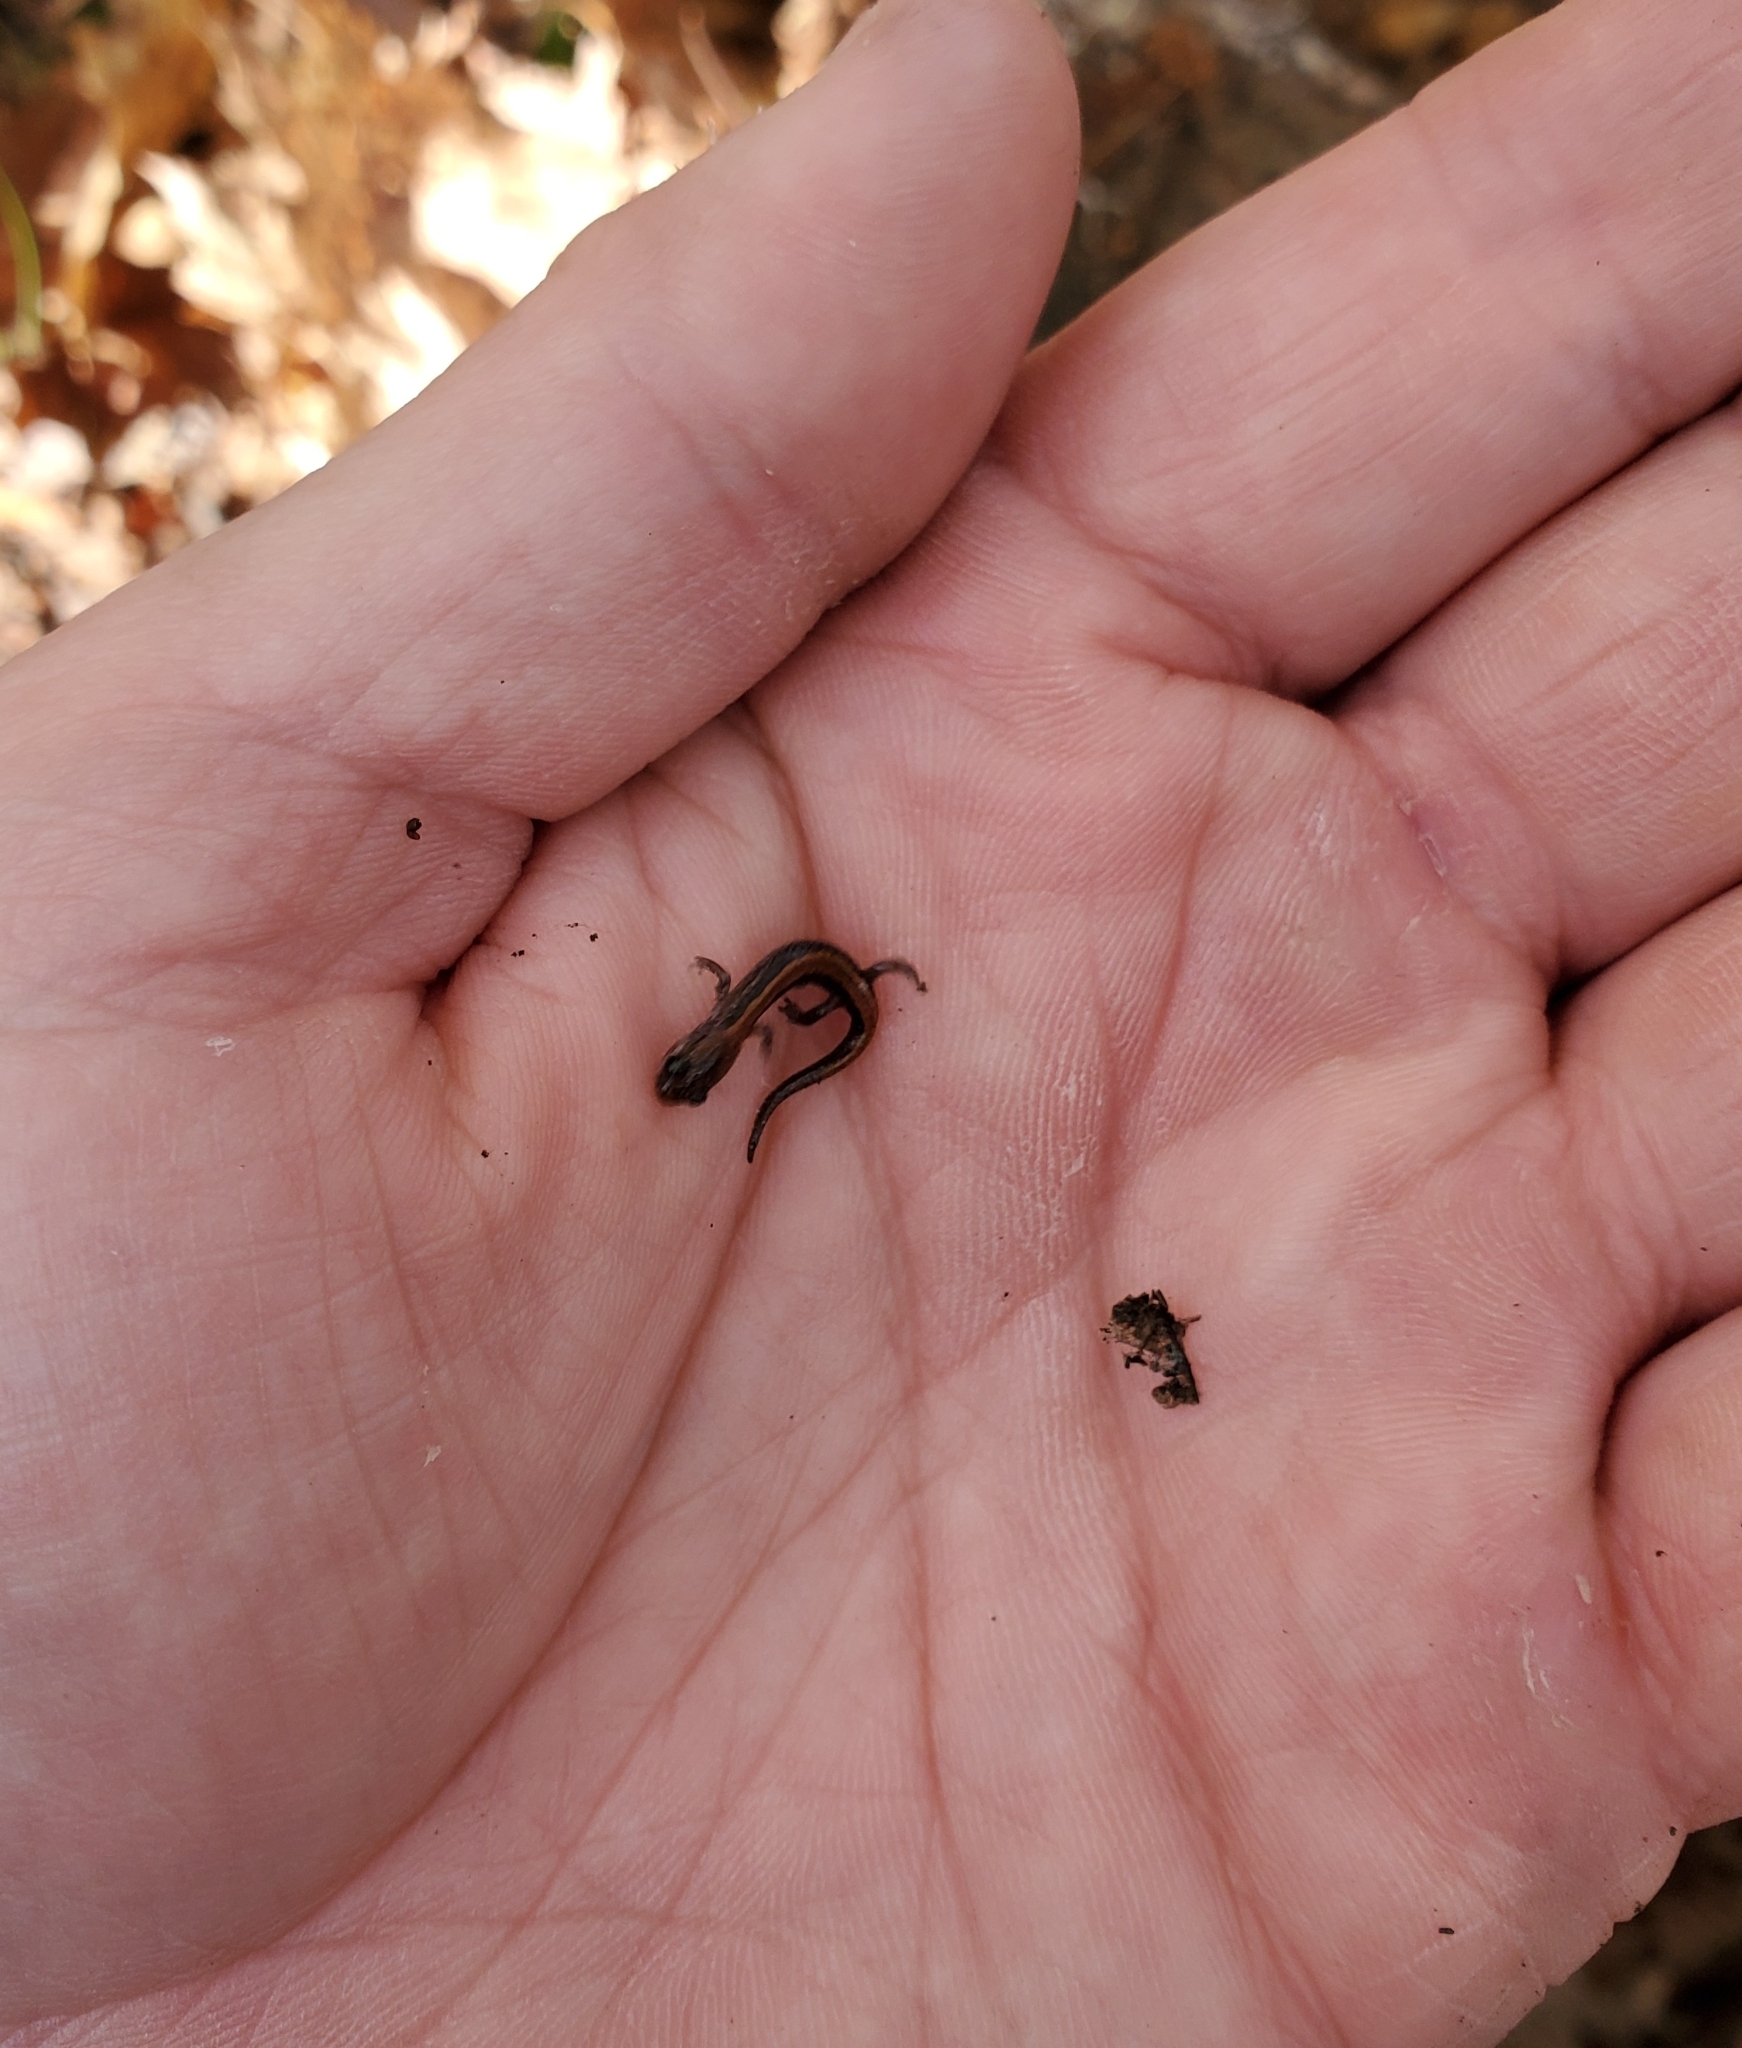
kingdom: Animalia
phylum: Chordata
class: Amphibia
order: Caudata
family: Plethodontidae
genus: Plethodon
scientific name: Plethodon cinereus
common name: Redback salamander
